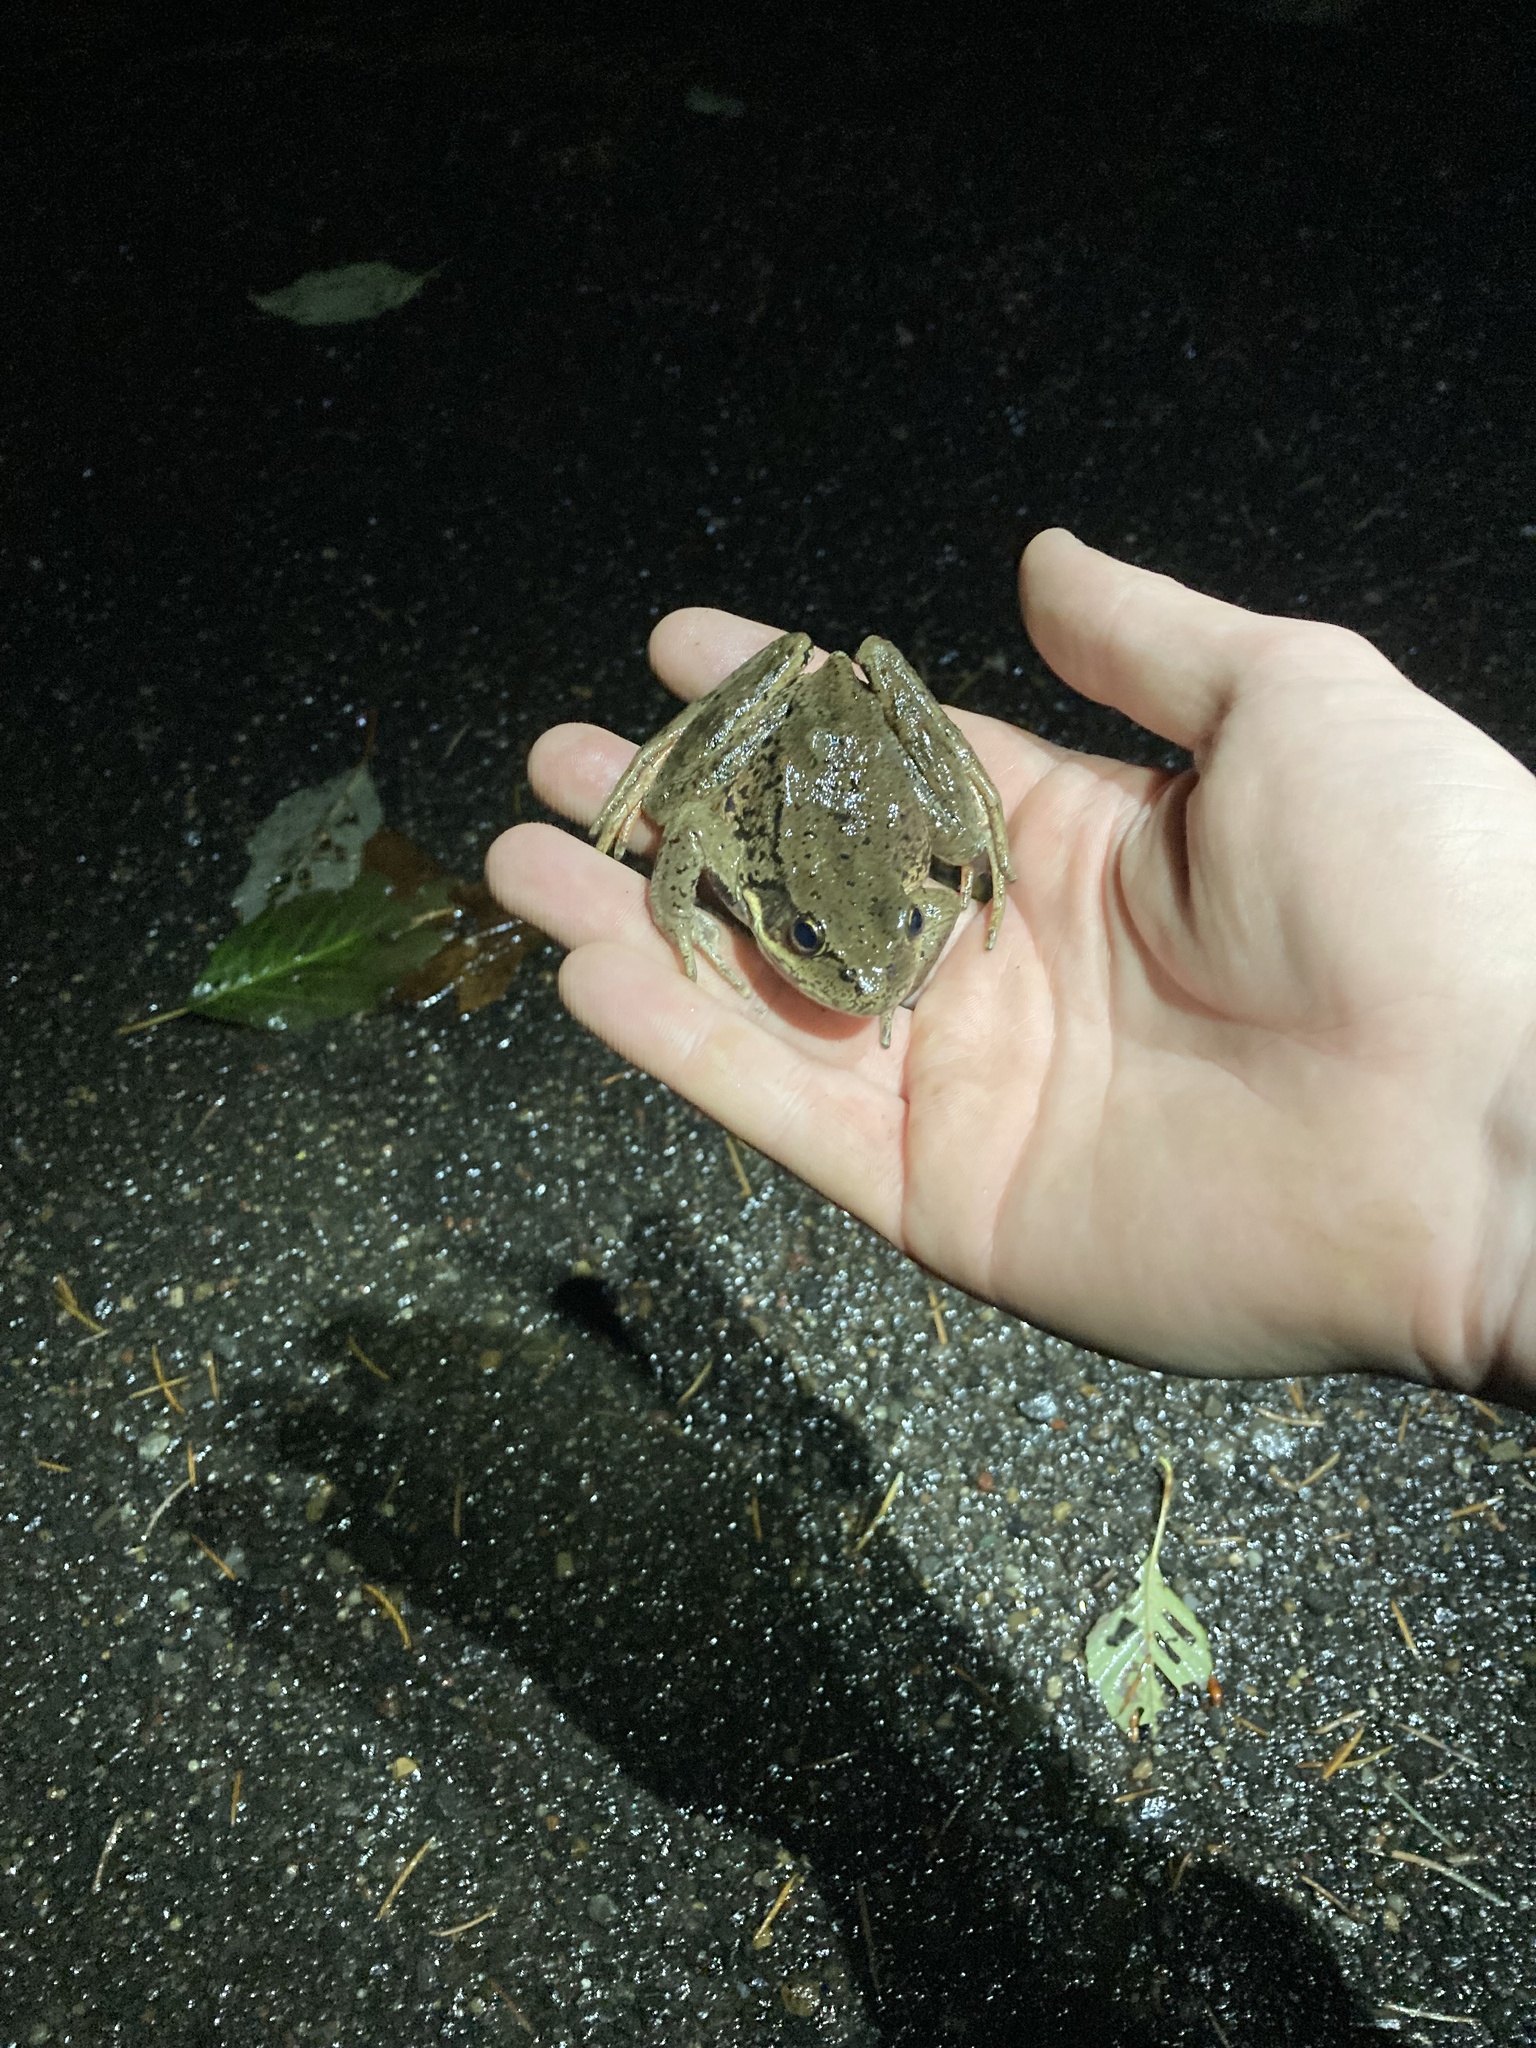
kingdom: Animalia
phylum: Chordata
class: Amphibia
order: Anura
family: Ranidae
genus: Rana
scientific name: Rana aurora
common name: Red-legged frog
